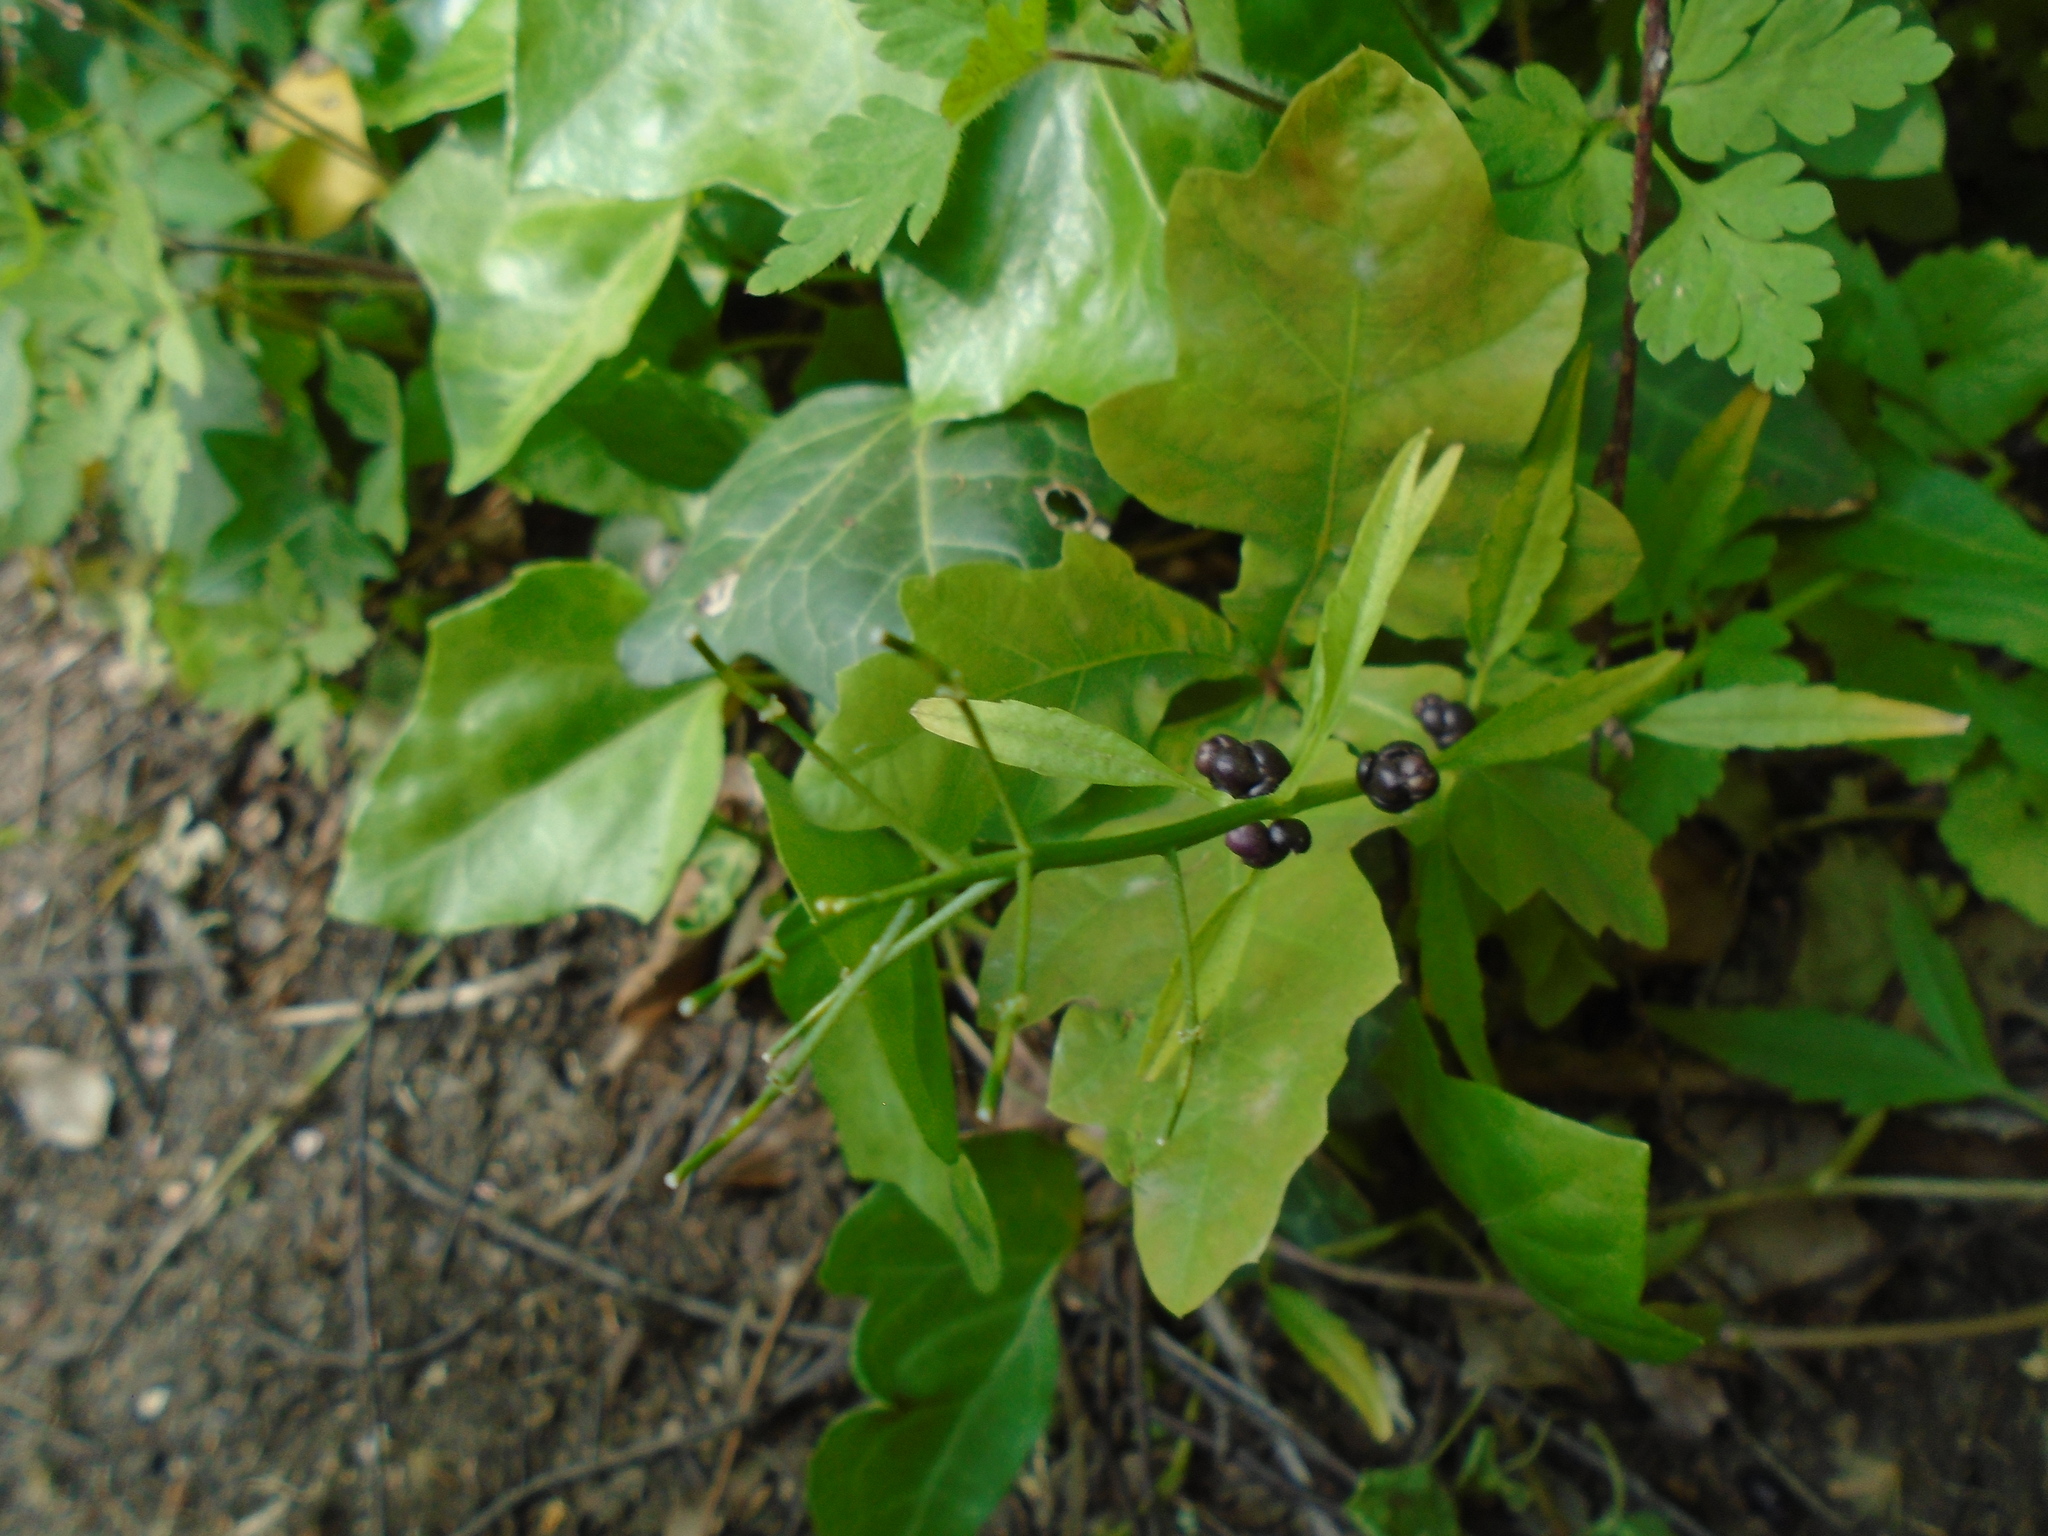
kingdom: Plantae
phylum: Tracheophyta
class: Magnoliopsida
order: Brassicales
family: Brassicaceae
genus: Cardamine
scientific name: Cardamine bulbifera
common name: Coralroot bittercress
